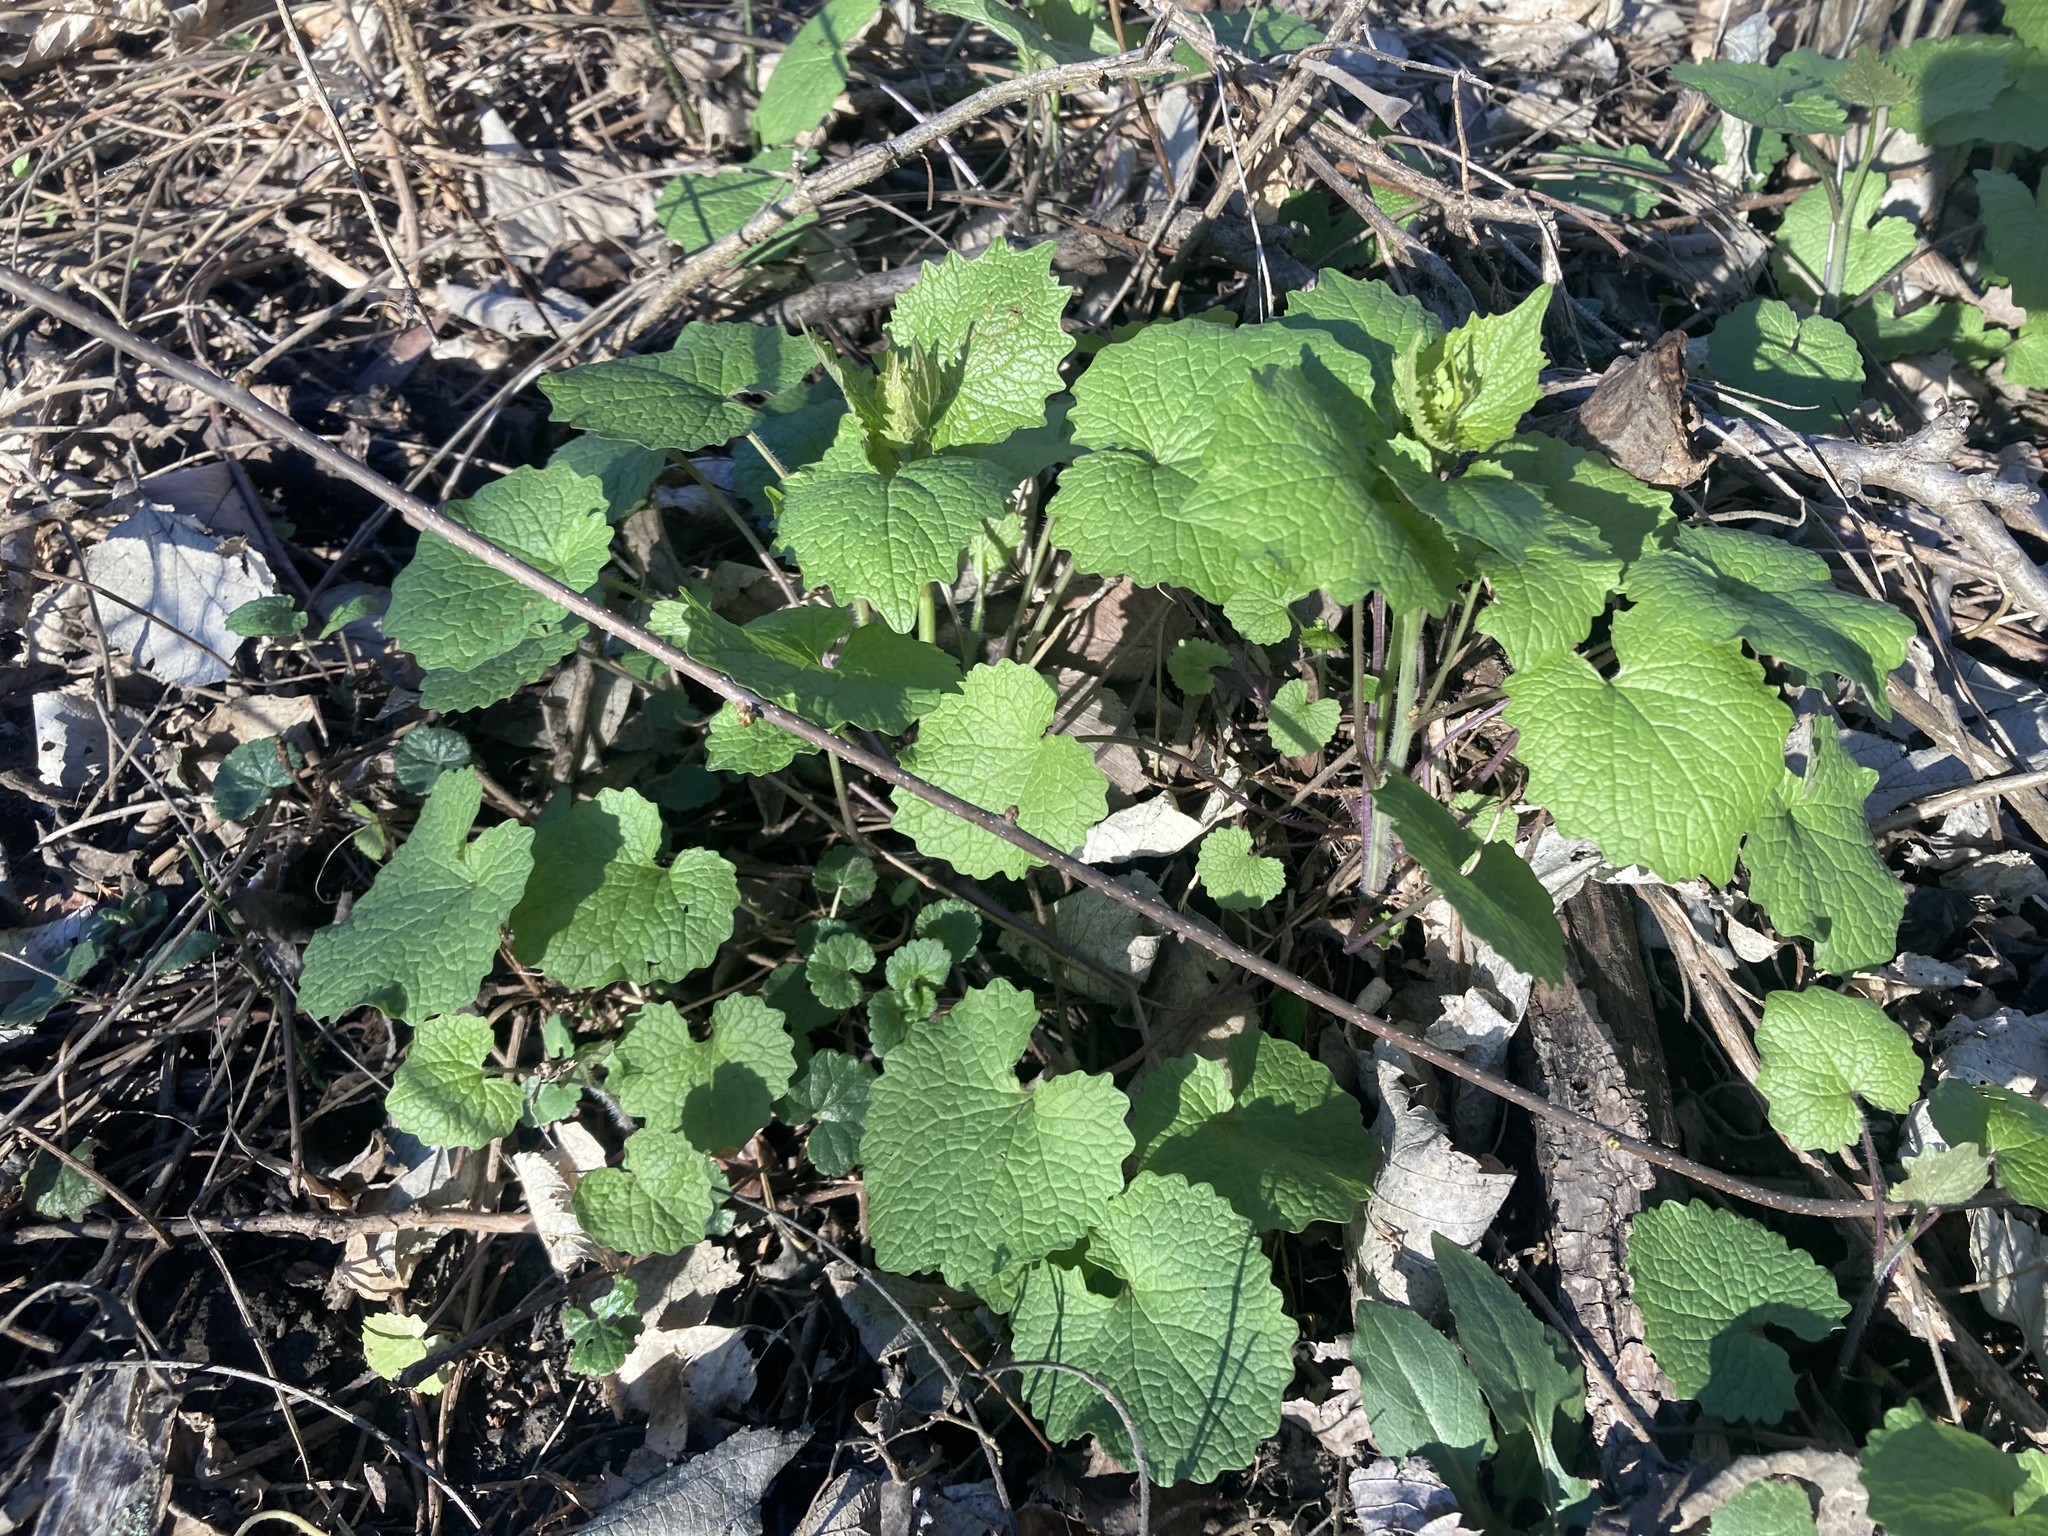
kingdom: Plantae
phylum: Tracheophyta
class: Magnoliopsida
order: Brassicales
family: Brassicaceae
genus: Alliaria
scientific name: Alliaria petiolata
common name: Garlic mustard
